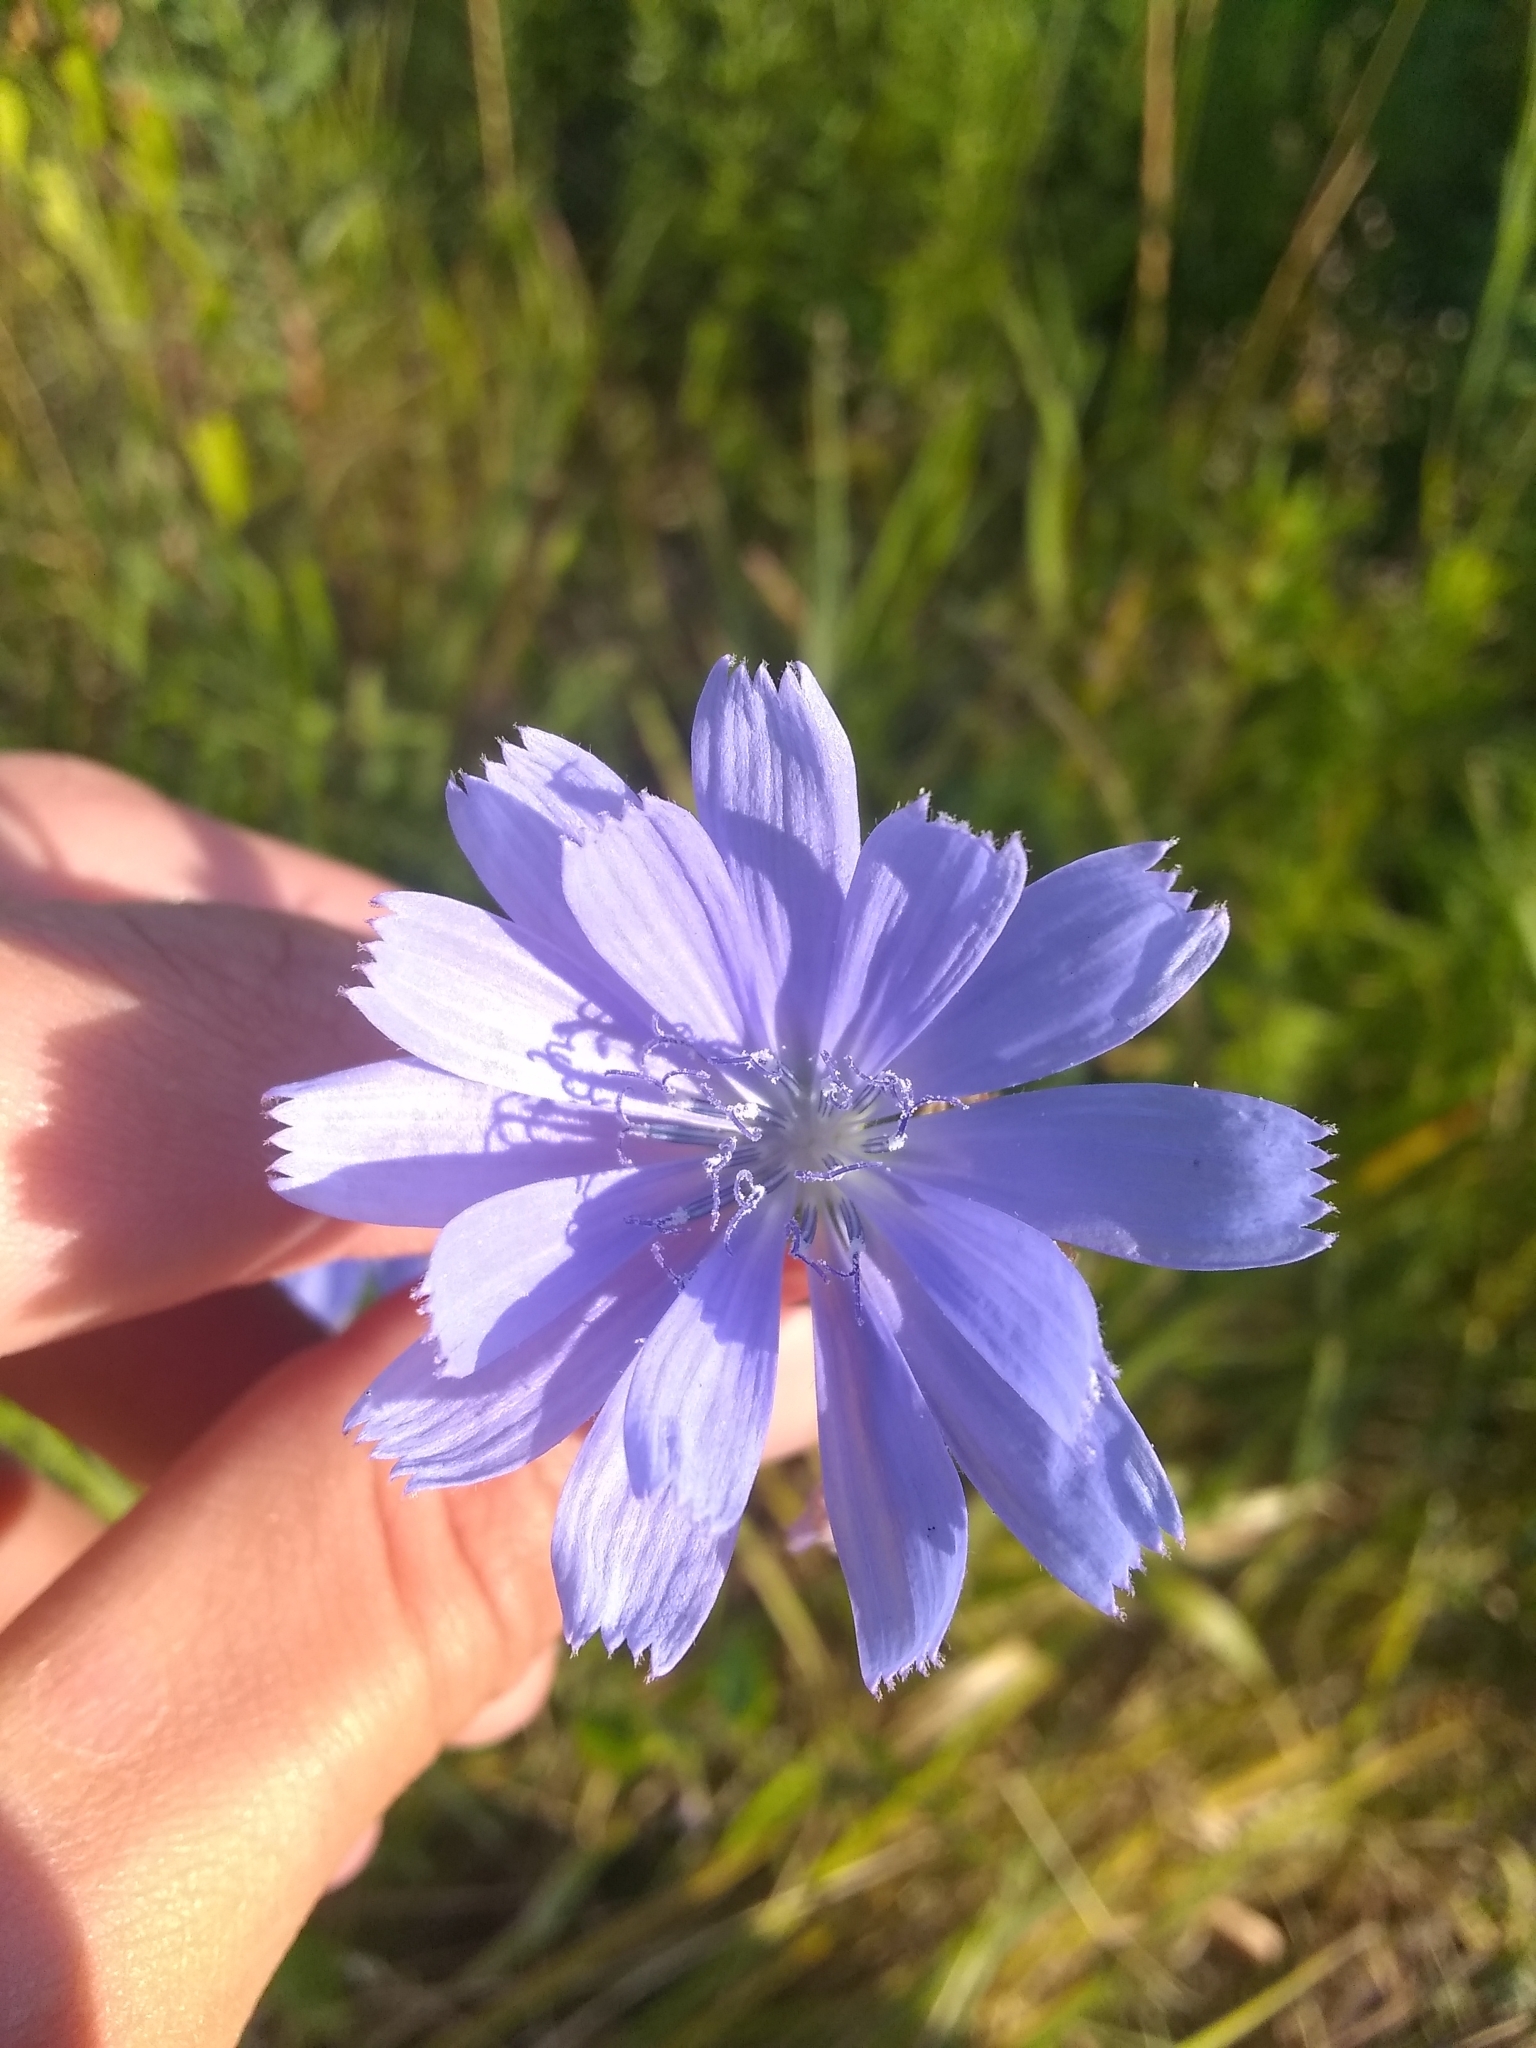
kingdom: Plantae
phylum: Tracheophyta
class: Magnoliopsida
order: Asterales
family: Asteraceae
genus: Cichorium
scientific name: Cichorium intybus
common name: Chicory
